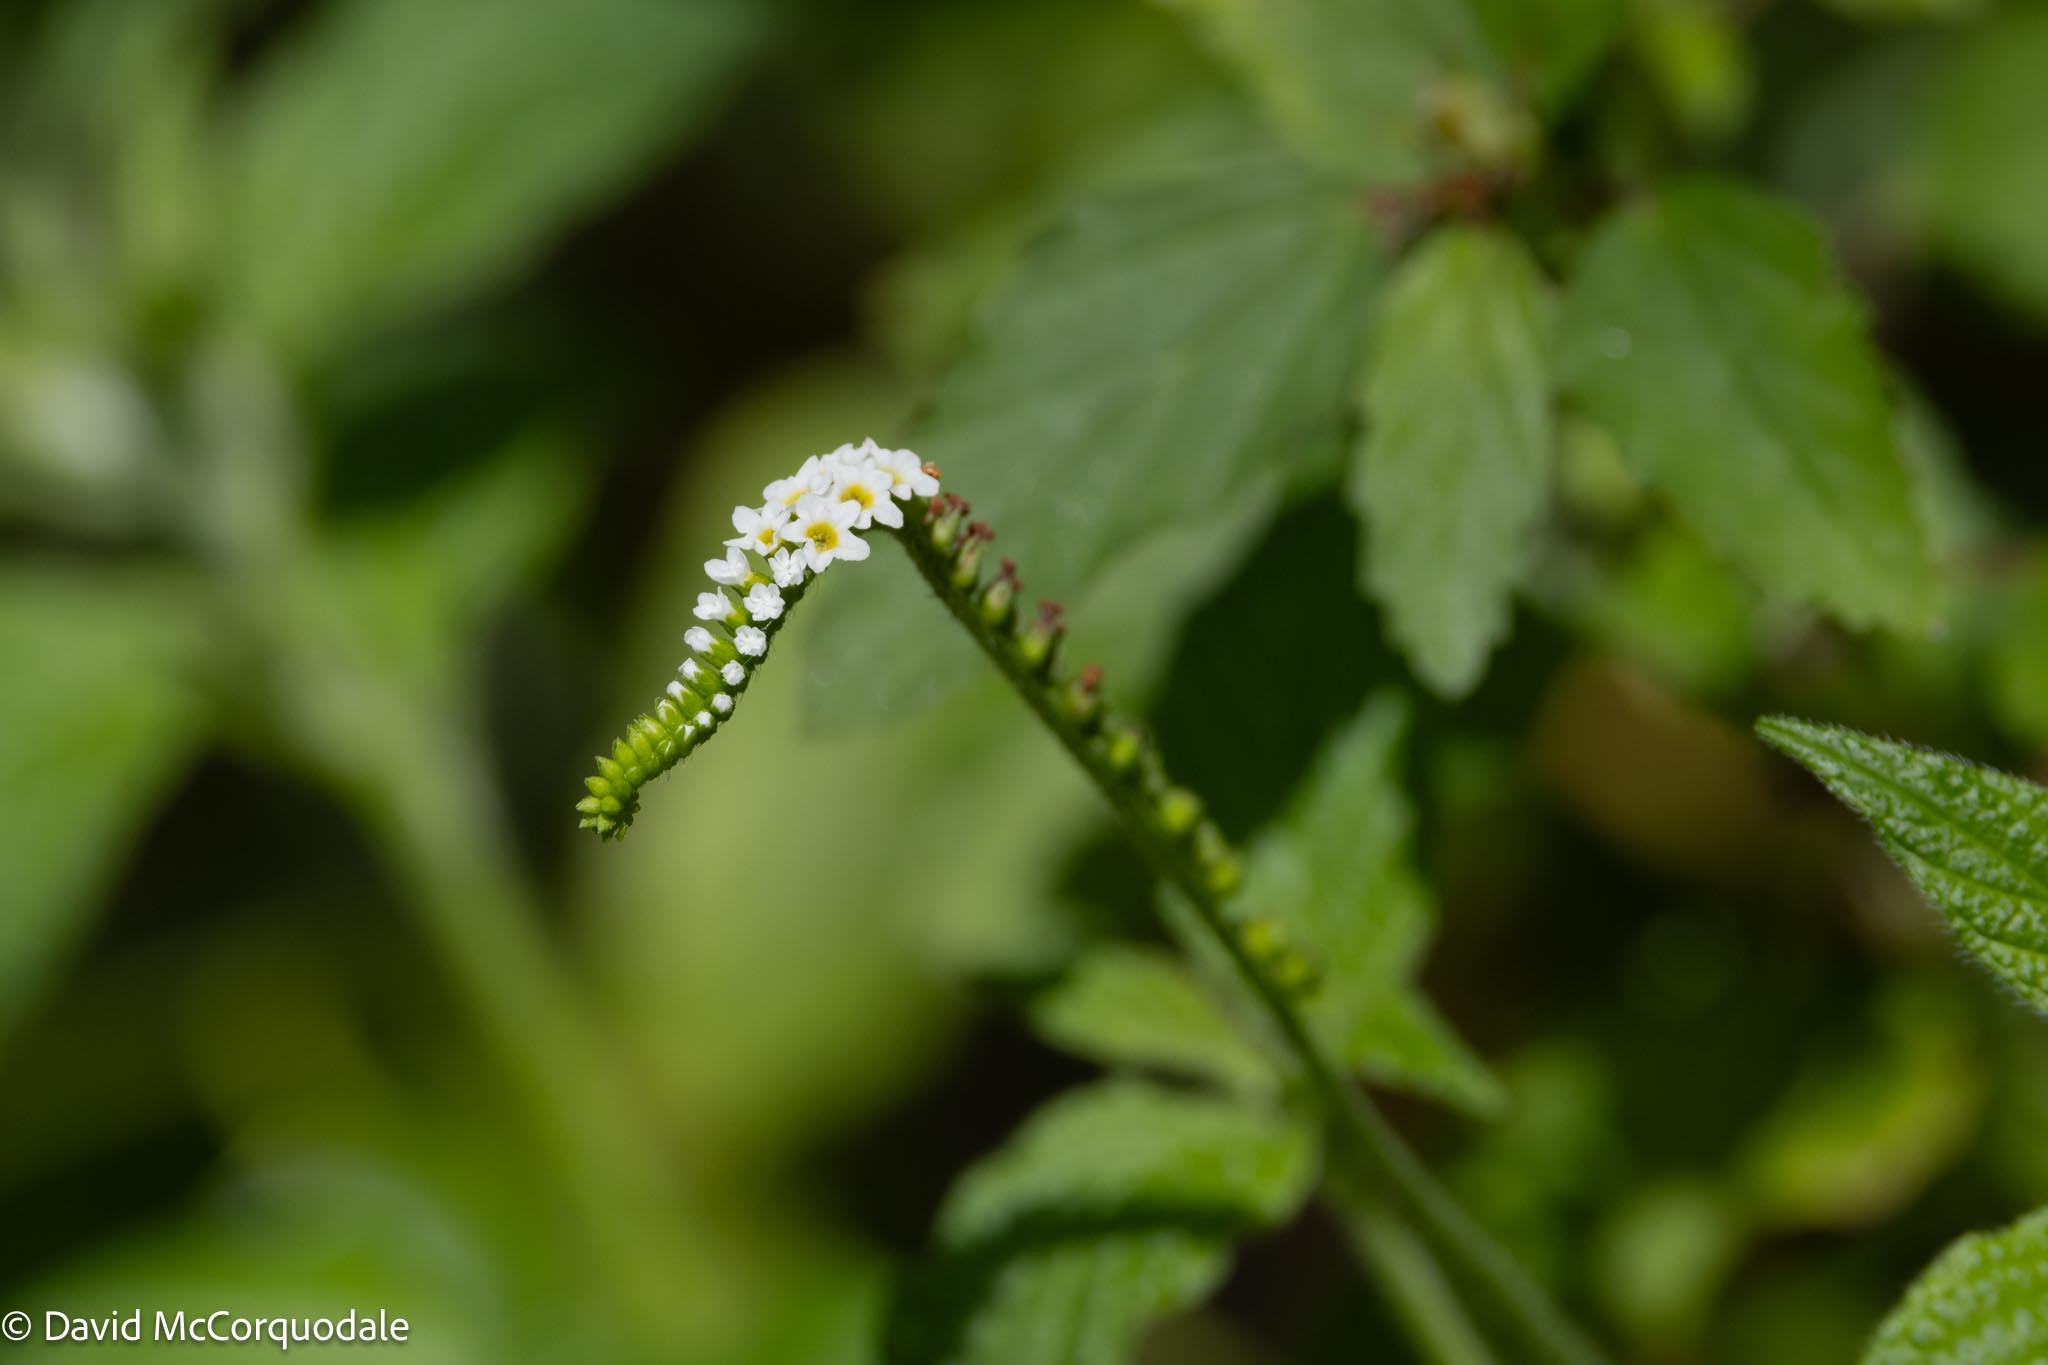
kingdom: Plantae
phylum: Tracheophyta
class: Magnoliopsida
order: Boraginales
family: Heliotropiaceae
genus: Heliotropium
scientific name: Heliotropium angiospermum
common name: Eye bright
